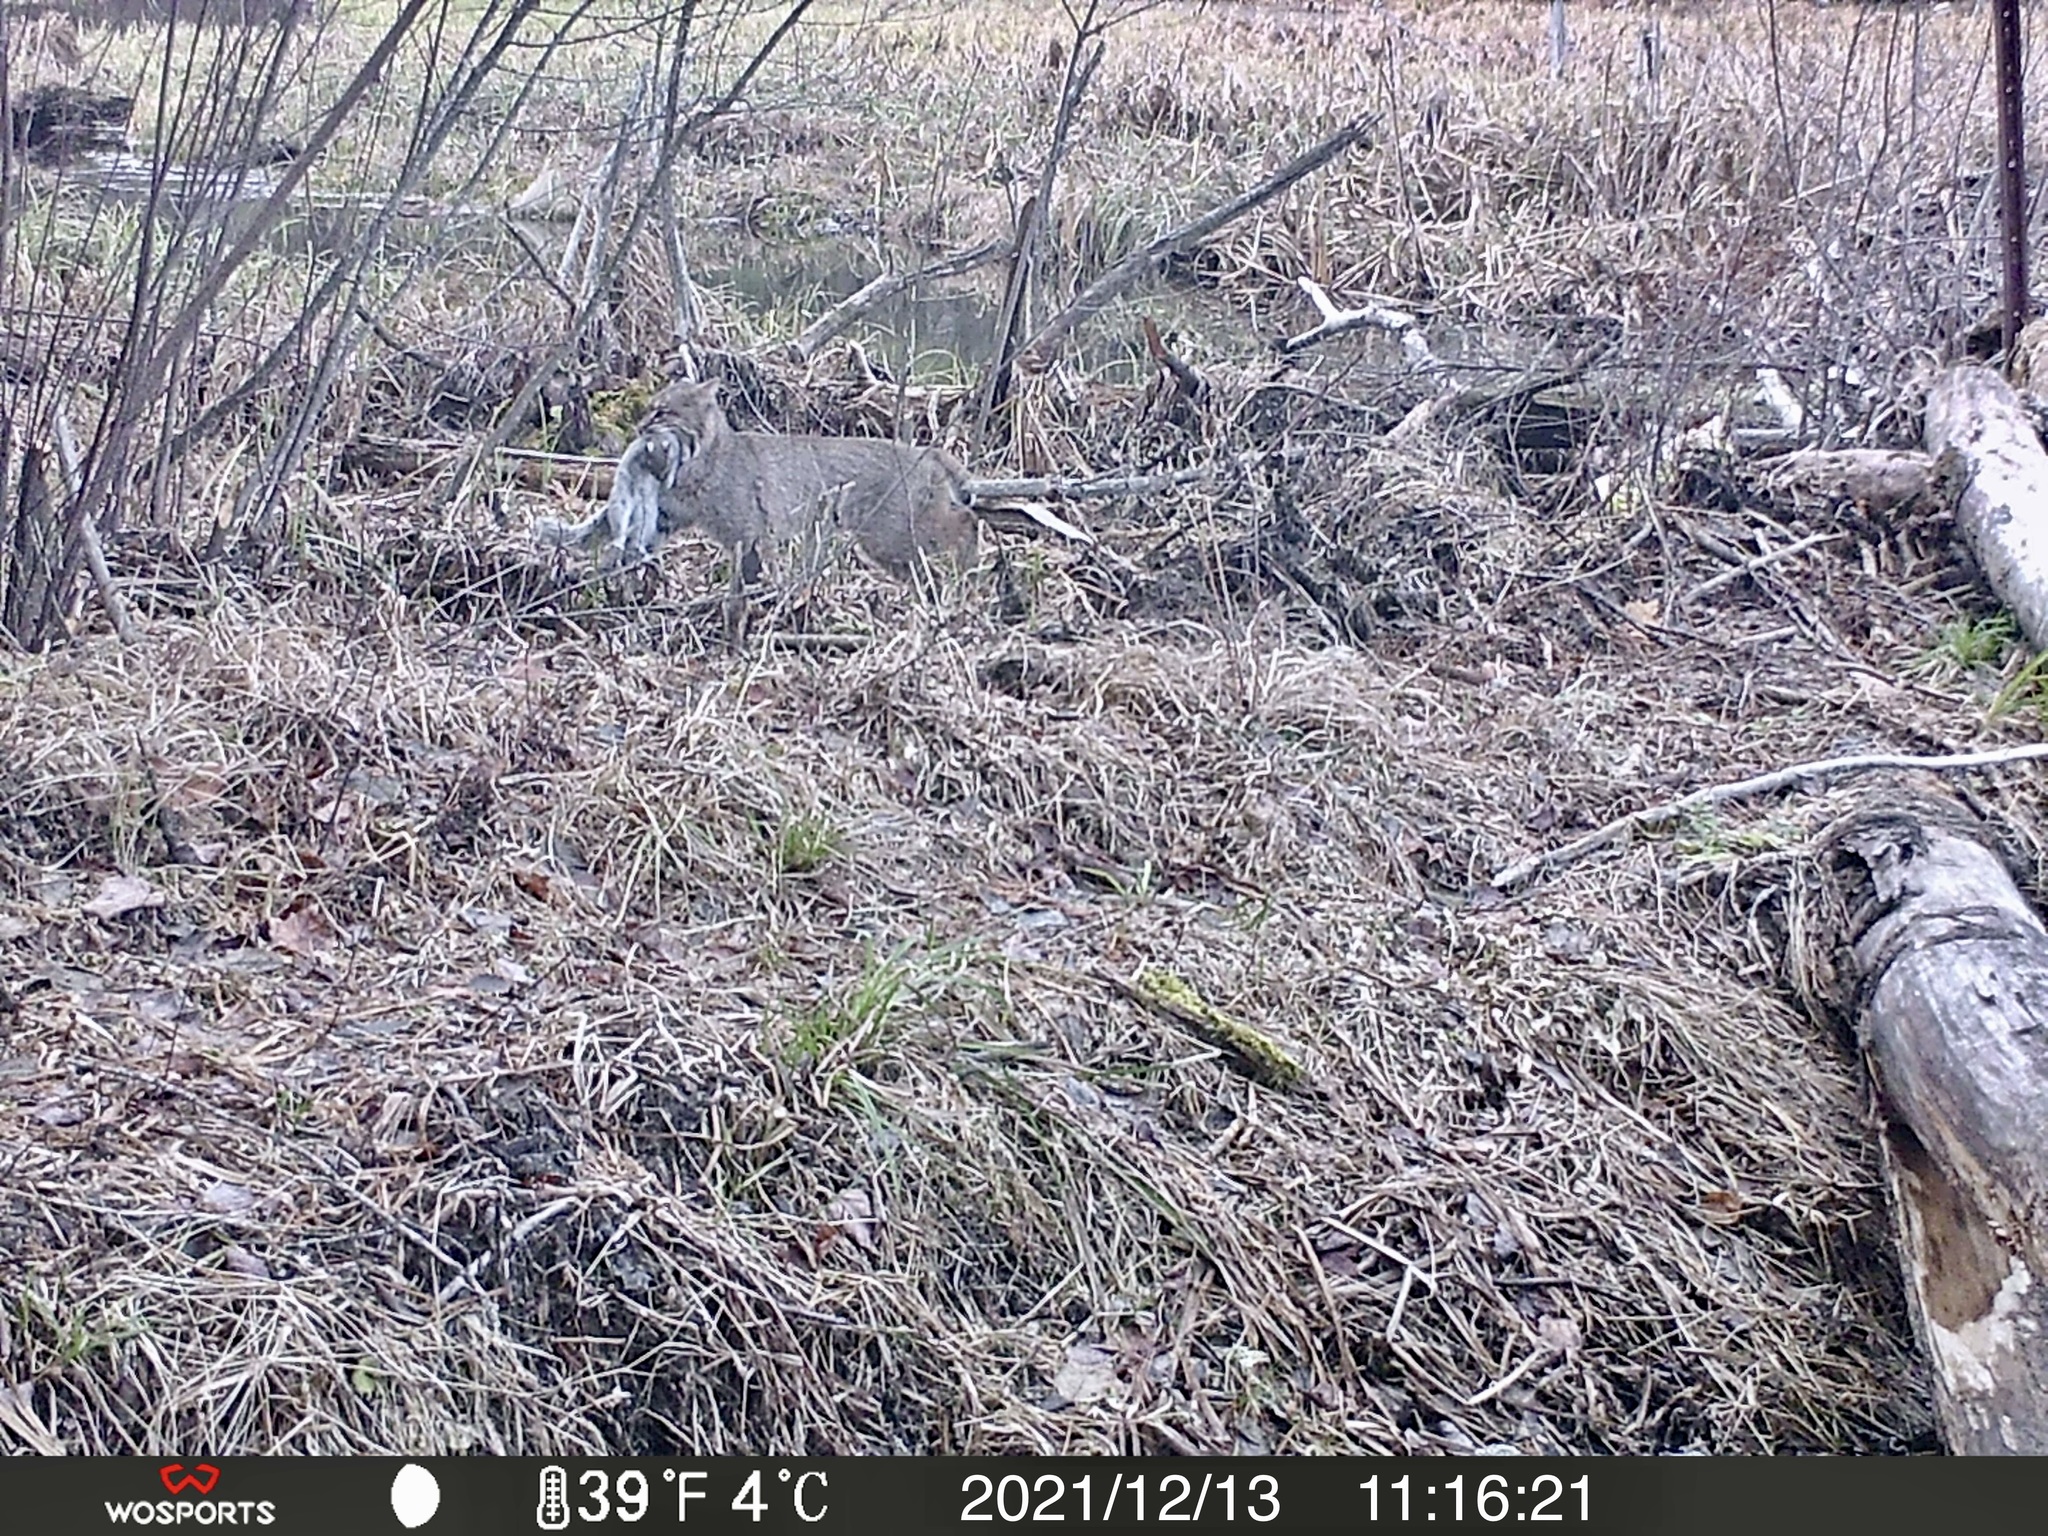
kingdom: Animalia
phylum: Chordata
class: Mammalia
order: Carnivora
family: Felidae
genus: Lynx
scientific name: Lynx rufus
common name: Bobcat
